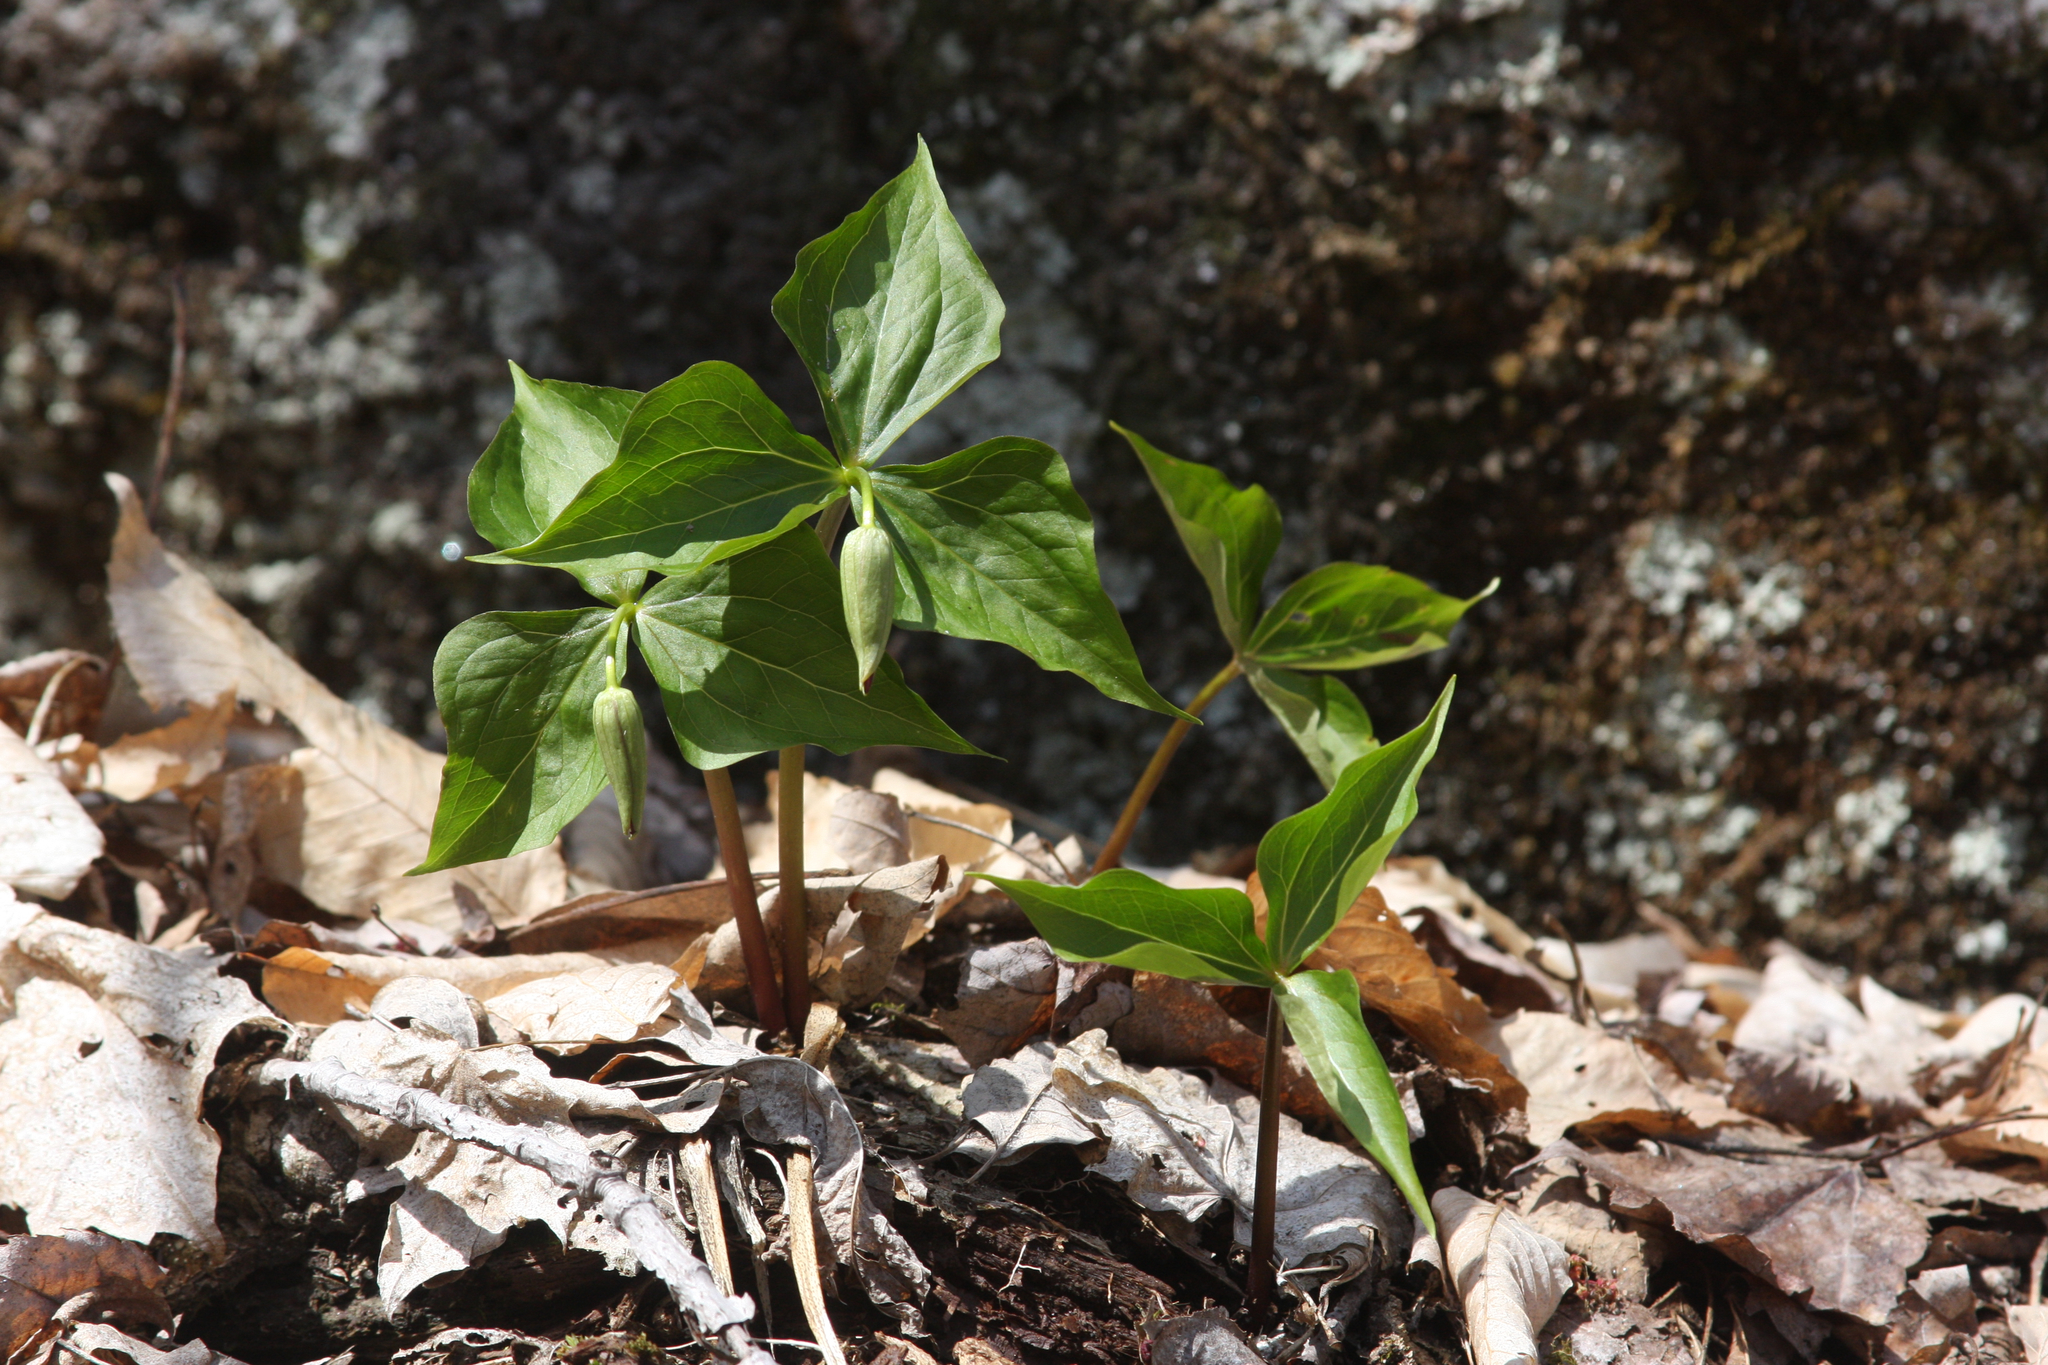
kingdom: Plantae
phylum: Tracheophyta
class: Liliopsida
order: Liliales
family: Melanthiaceae
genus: Trillium
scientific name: Trillium erectum
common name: Purple trillium
